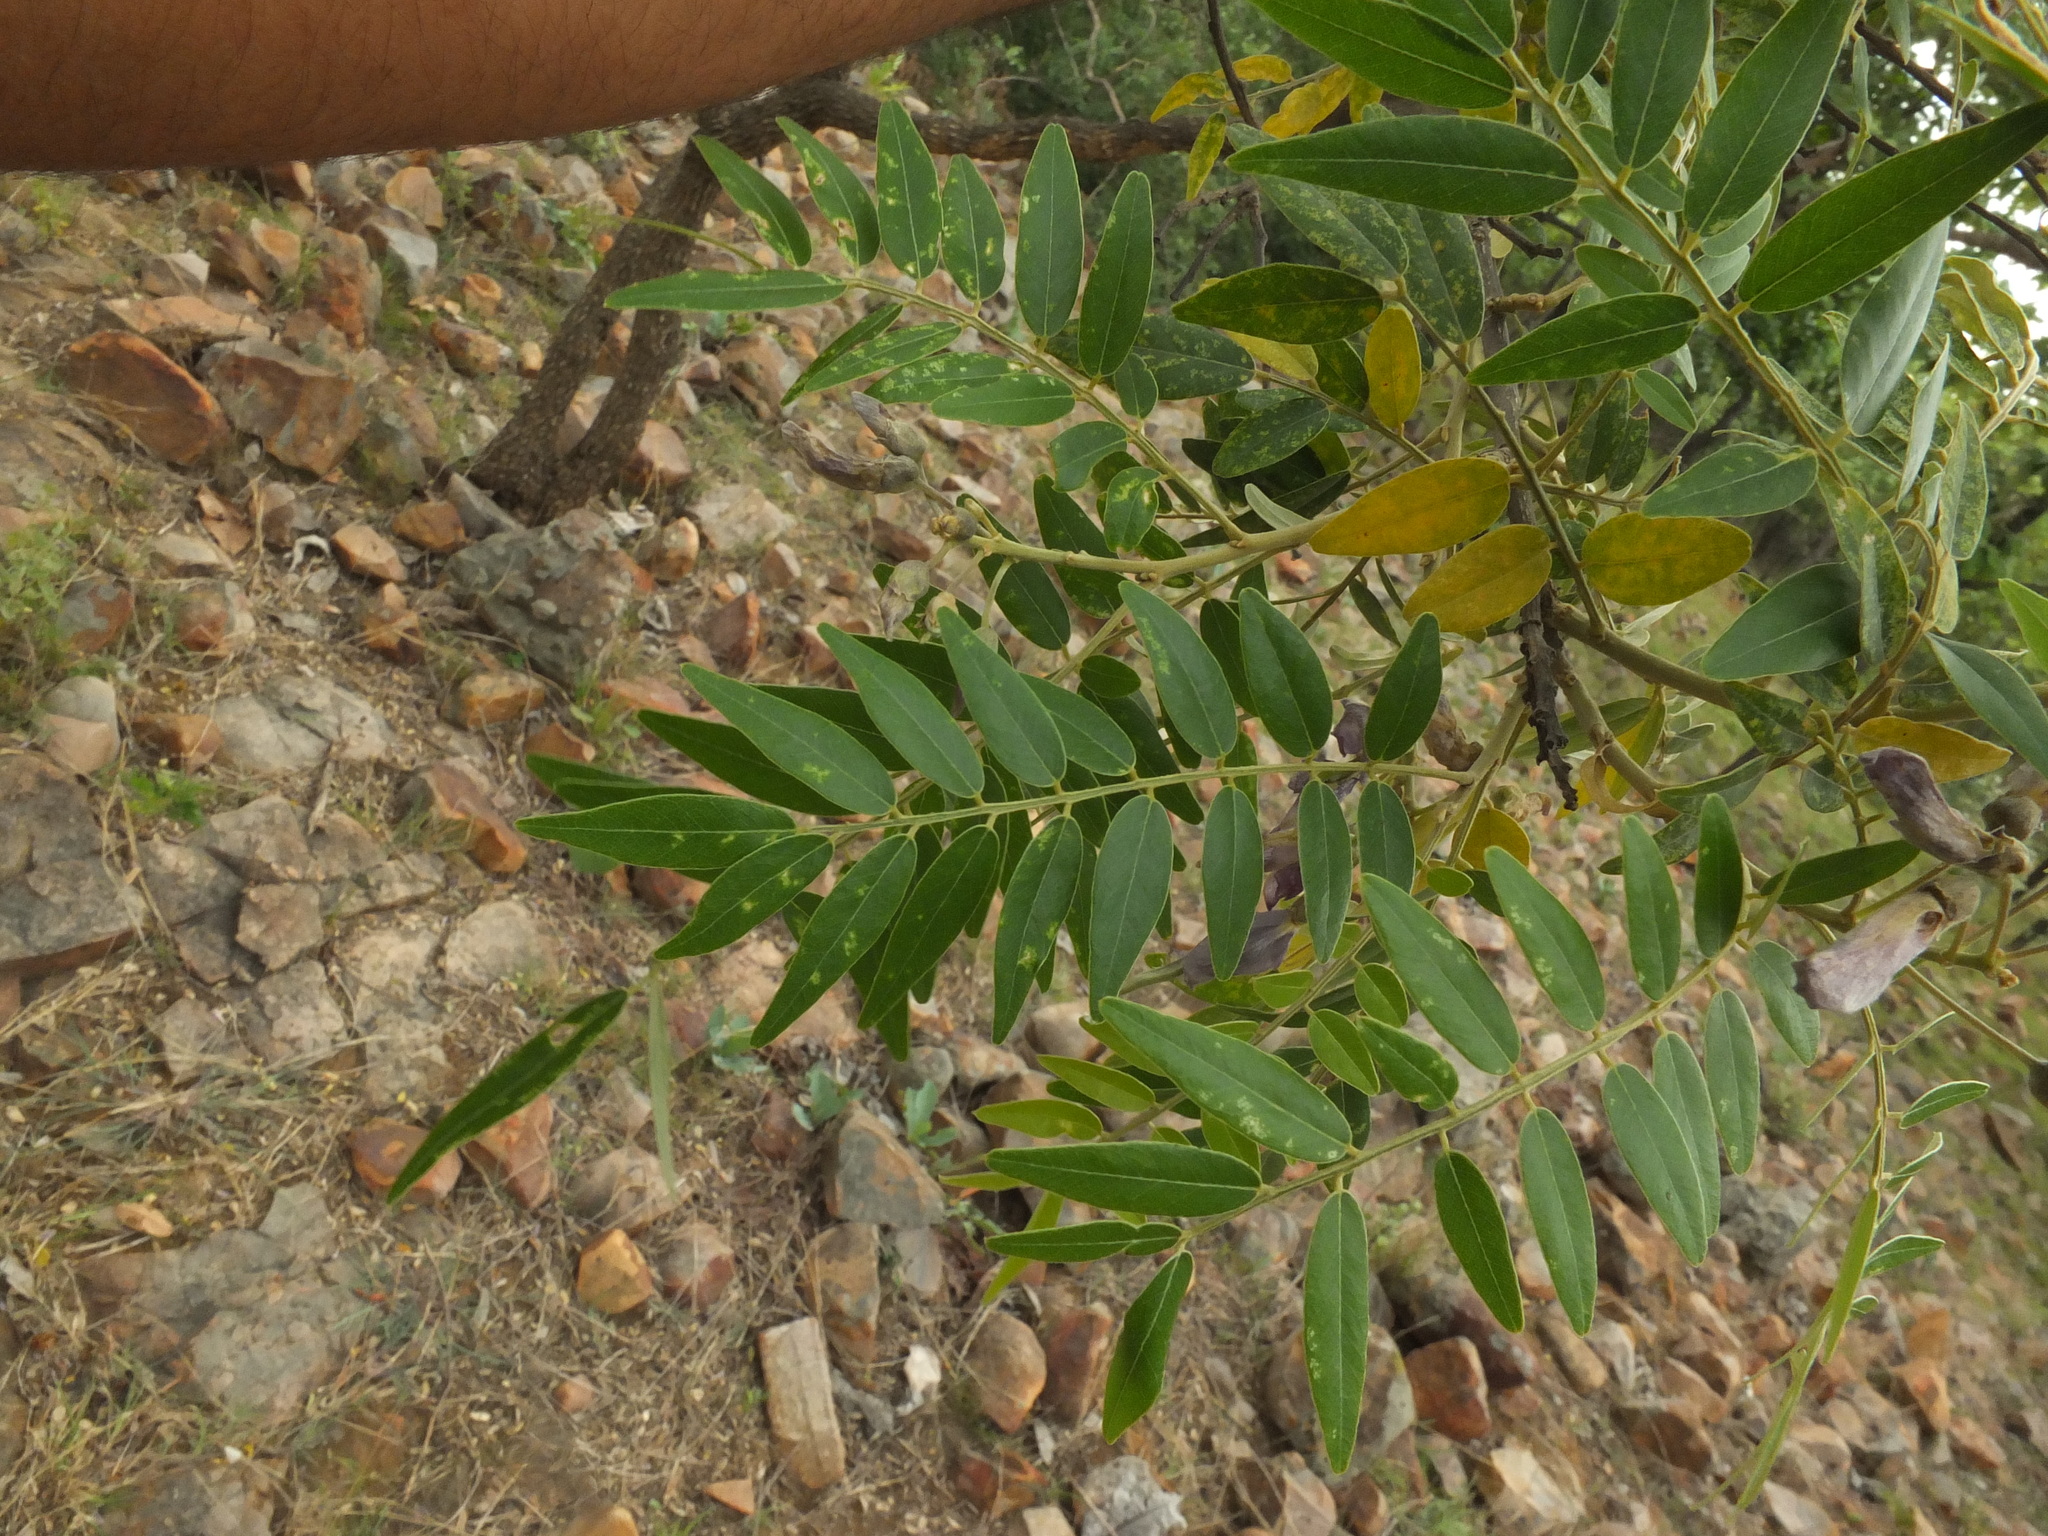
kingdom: Plantae
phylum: Tracheophyta
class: Magnoliopsida
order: Fabales
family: Fabaceae
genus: Mundulea
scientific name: Mundulea sericea
